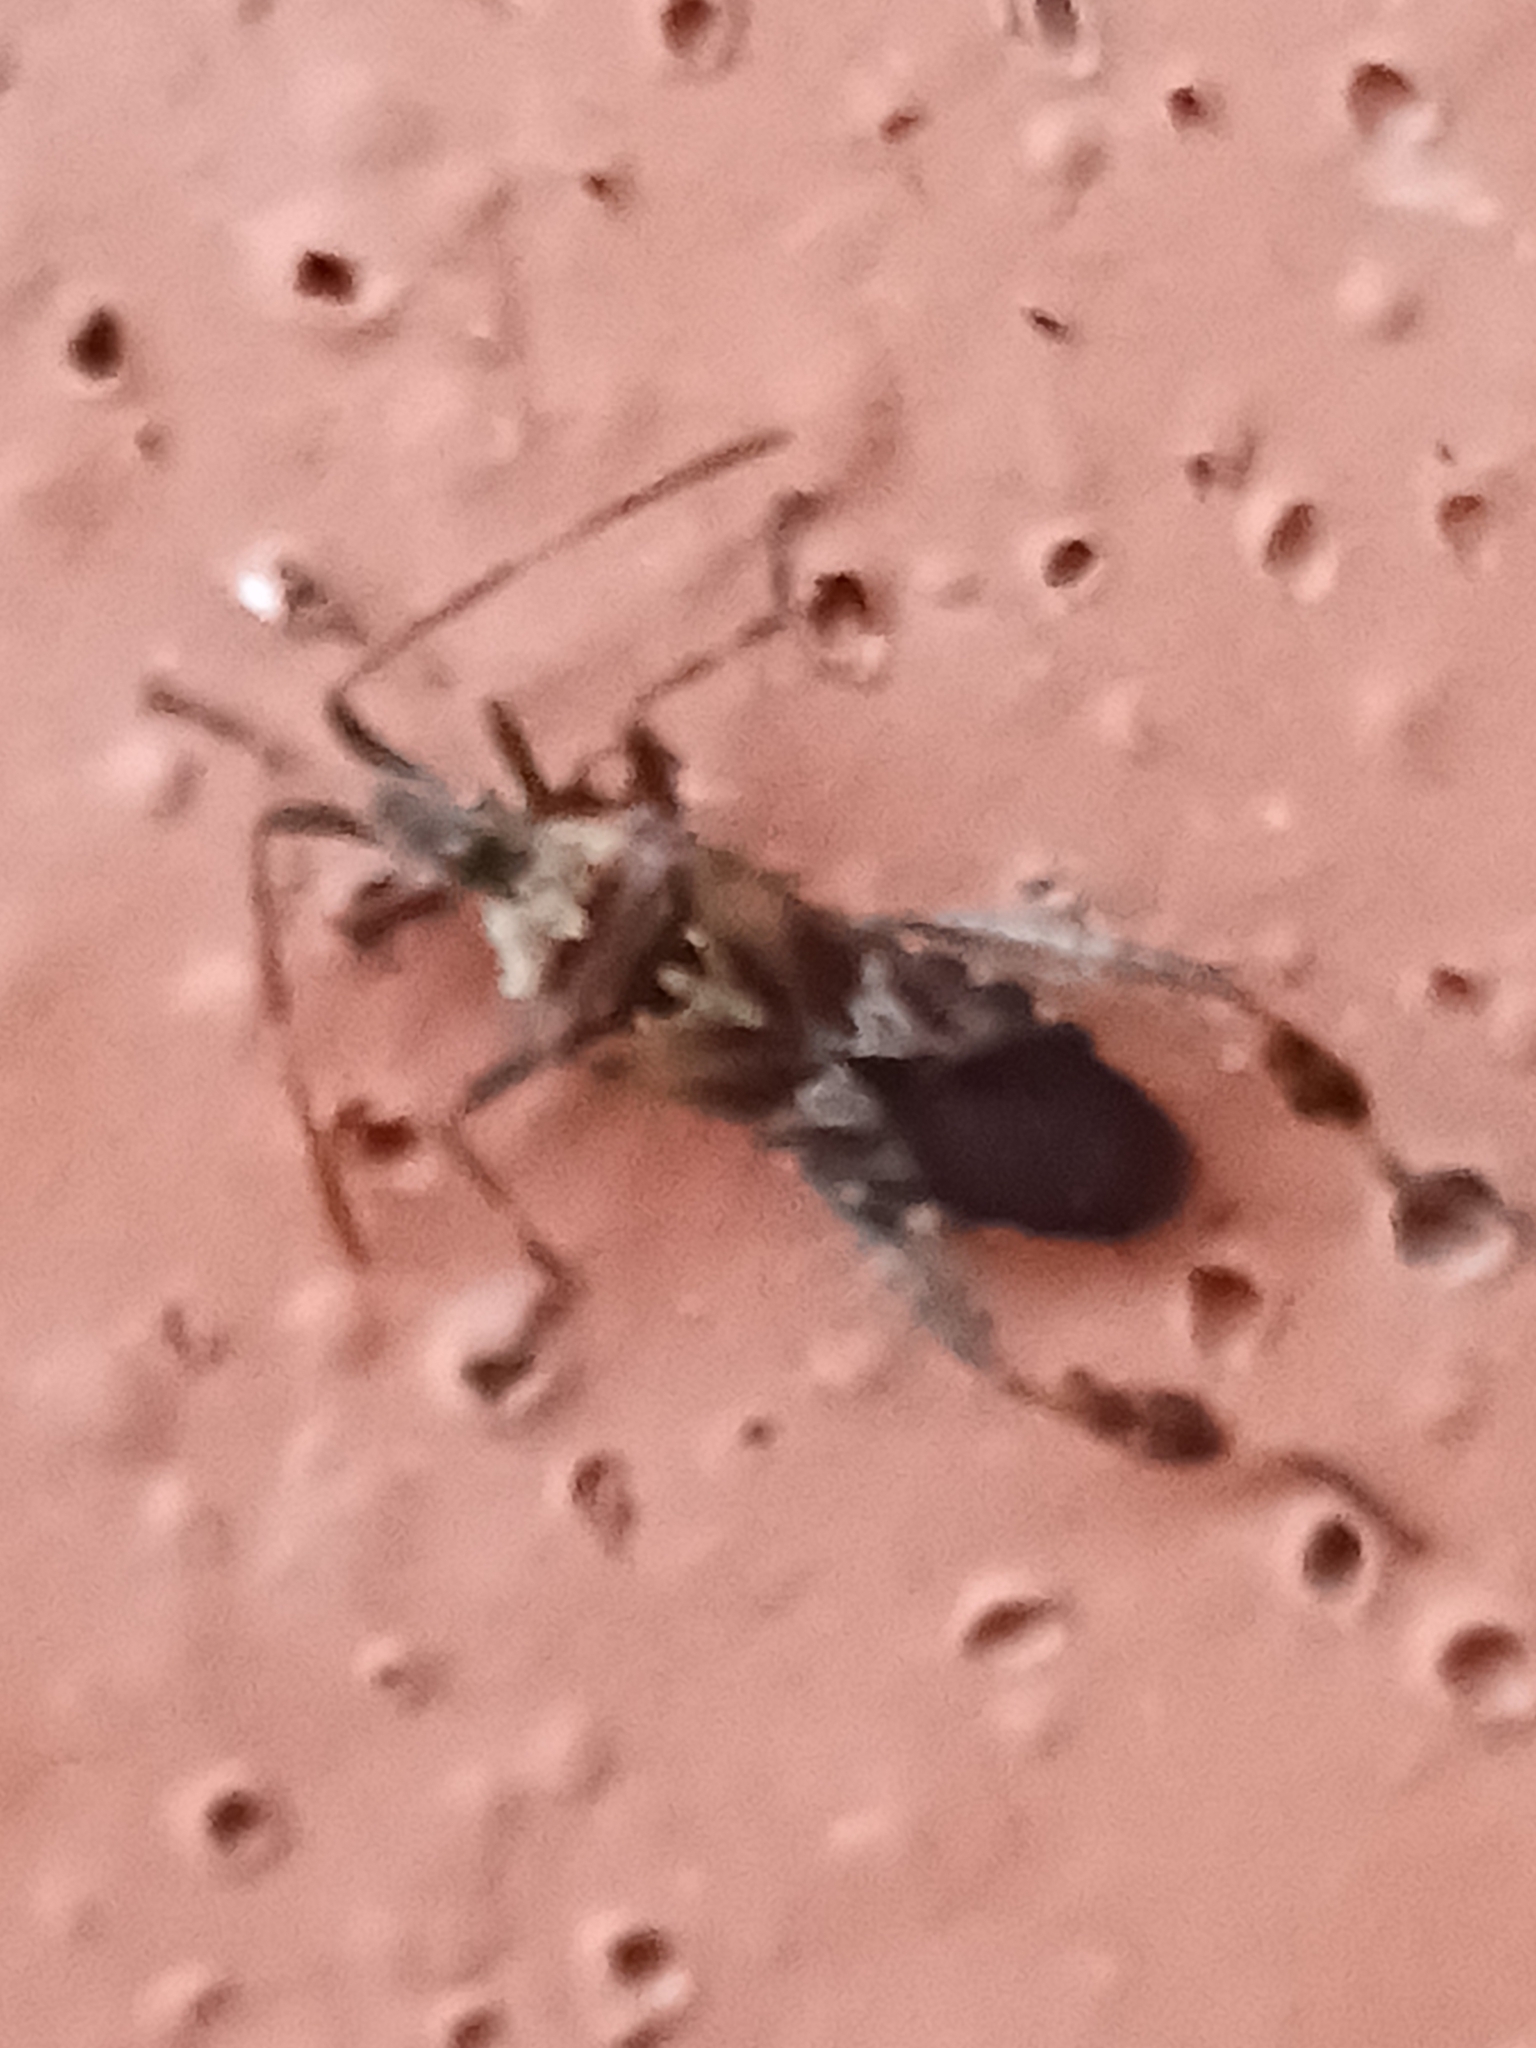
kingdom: Animalia
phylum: Arthropoda
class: Insecta
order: Hemiptera
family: Coreidae
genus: Leptoglossus
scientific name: Leptoglossus occidentalis
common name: Western conifer-seed bug
